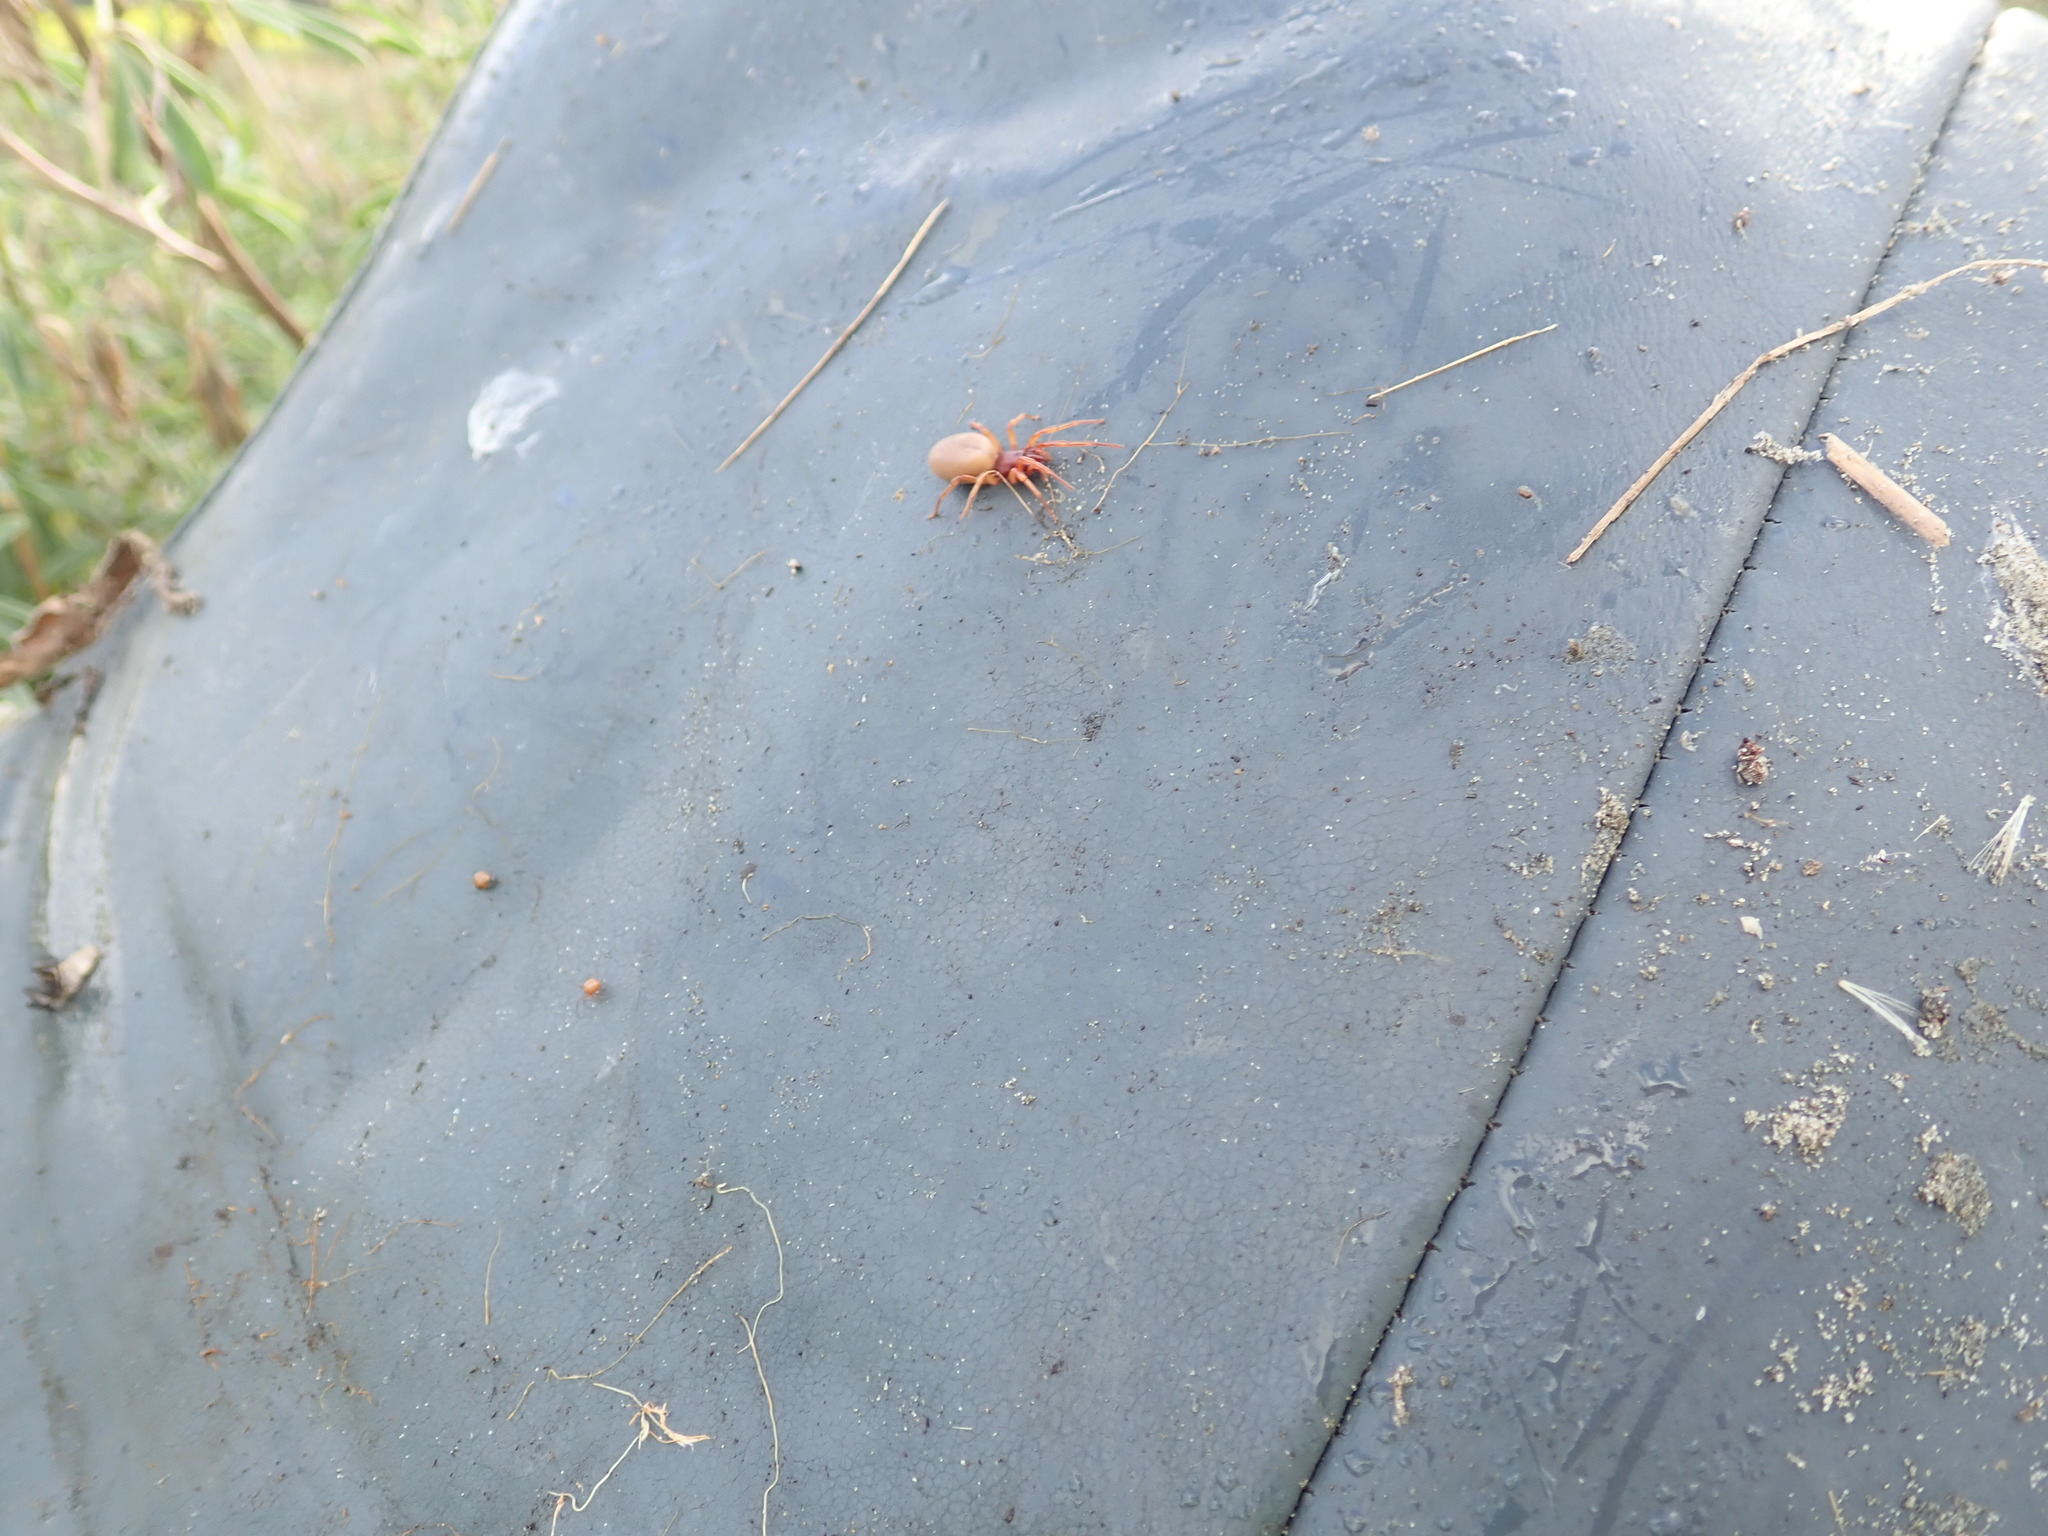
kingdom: Animalia
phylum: Arthropoda
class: Arachnida
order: Araneae
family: Dysderidae
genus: Dysdera
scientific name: Dysdera crocata
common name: Woodlouse spider
